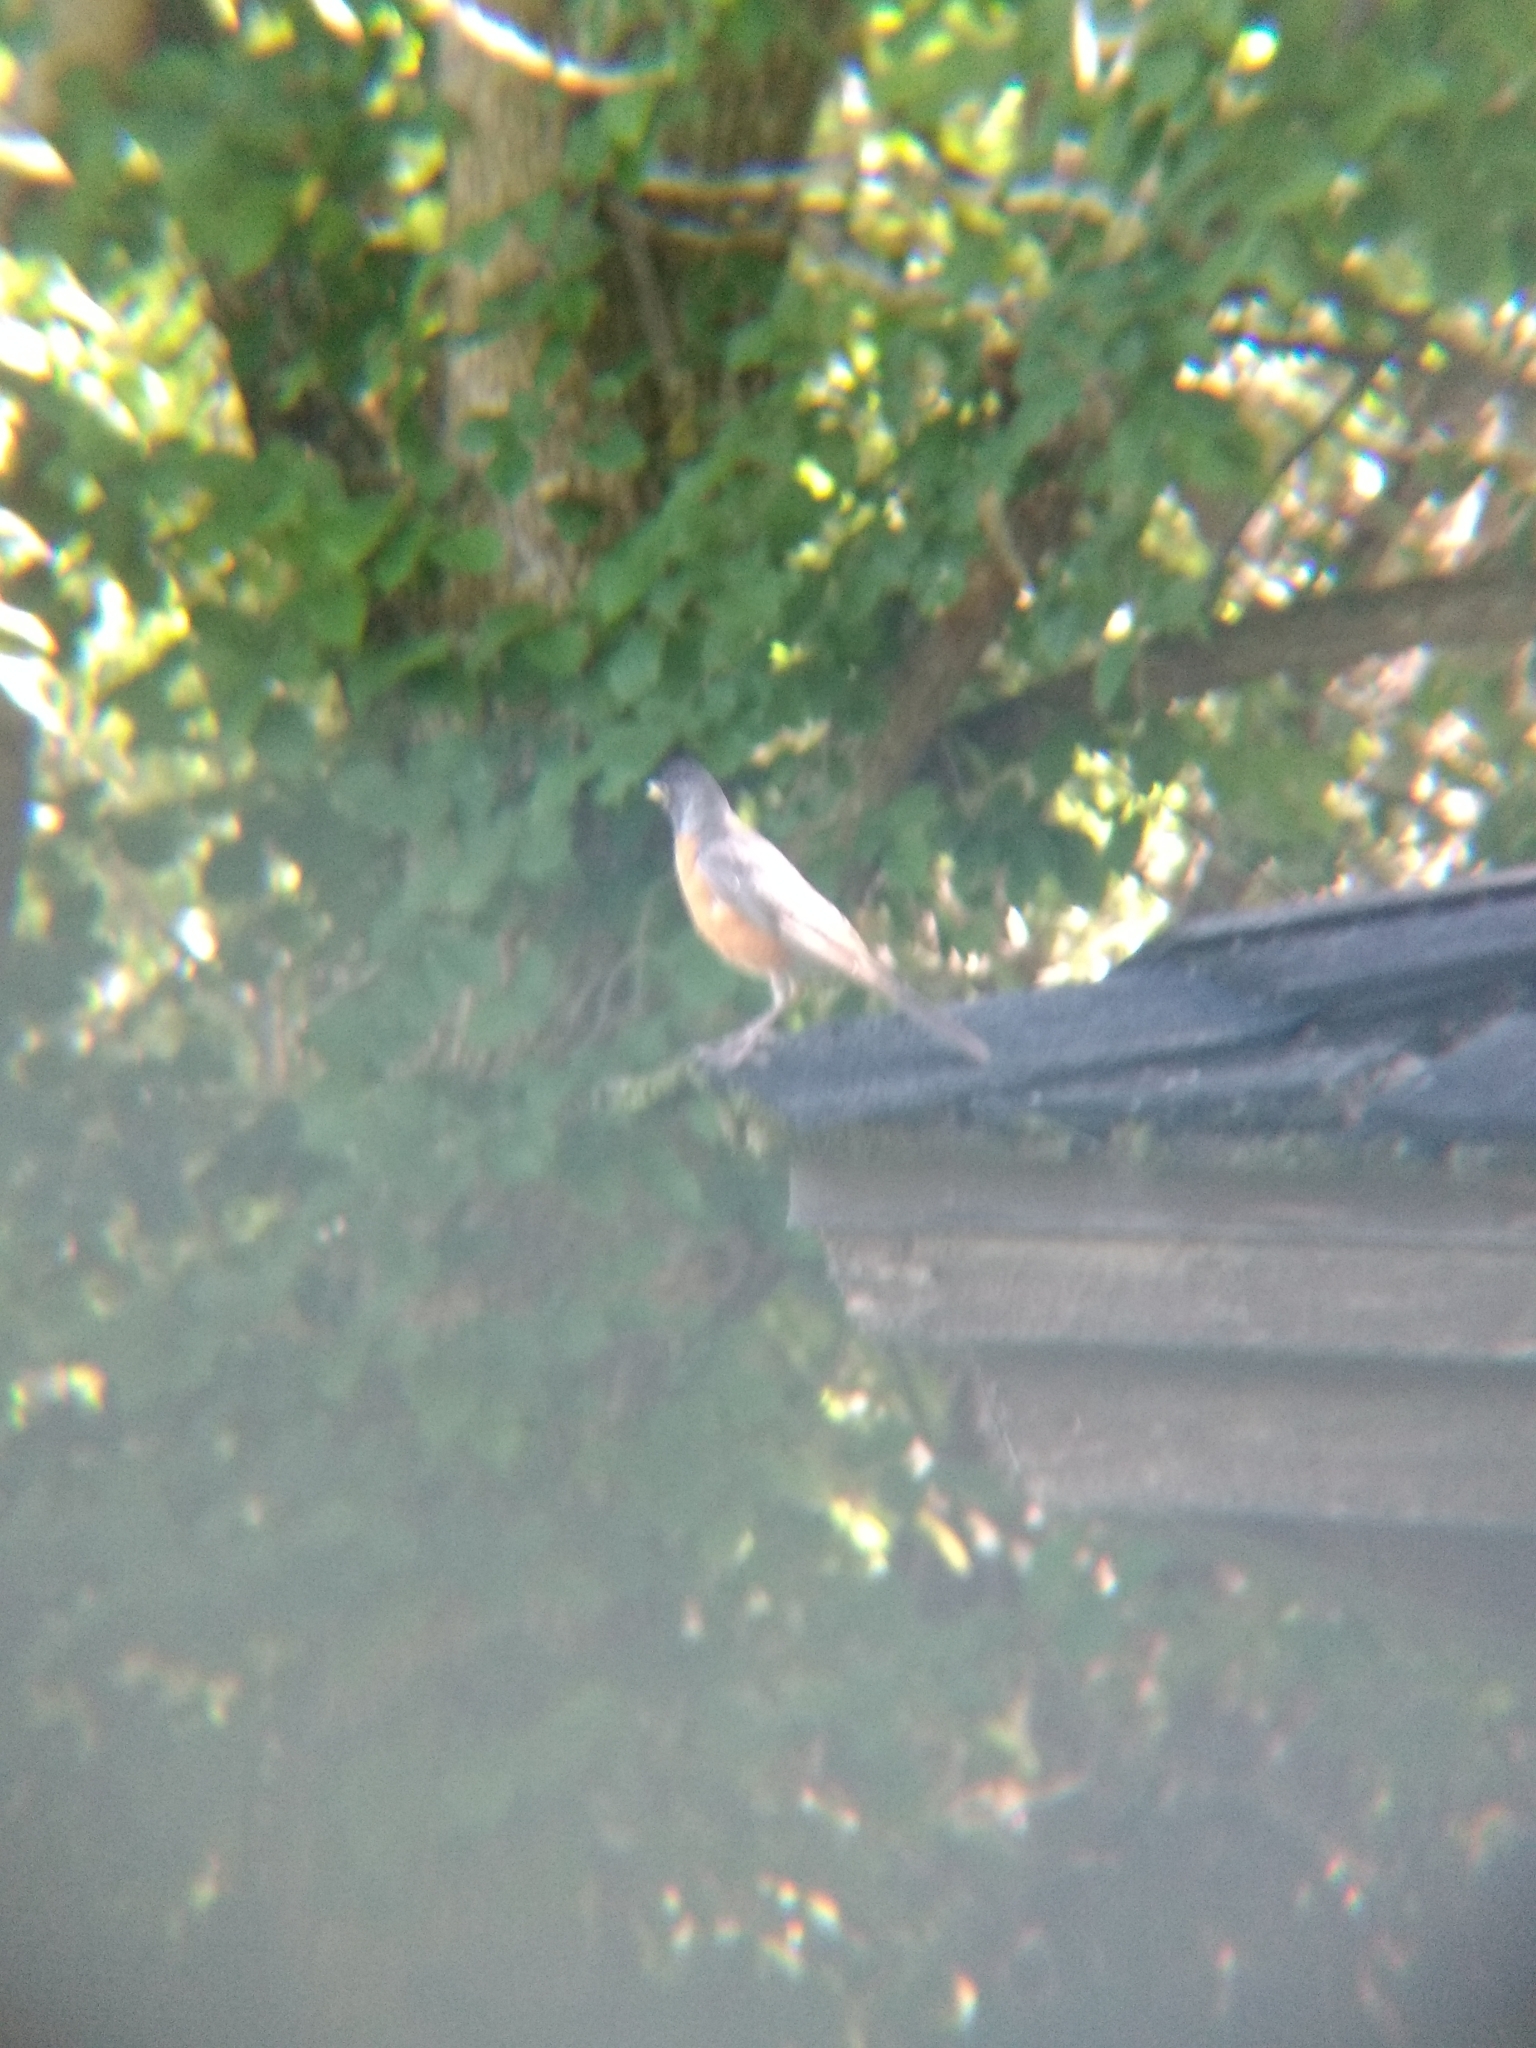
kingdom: Animalia
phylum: Chordata
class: Aves
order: Passeriformes
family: Turdidae
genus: Turdus
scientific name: Turdus migratorius
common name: American robin
